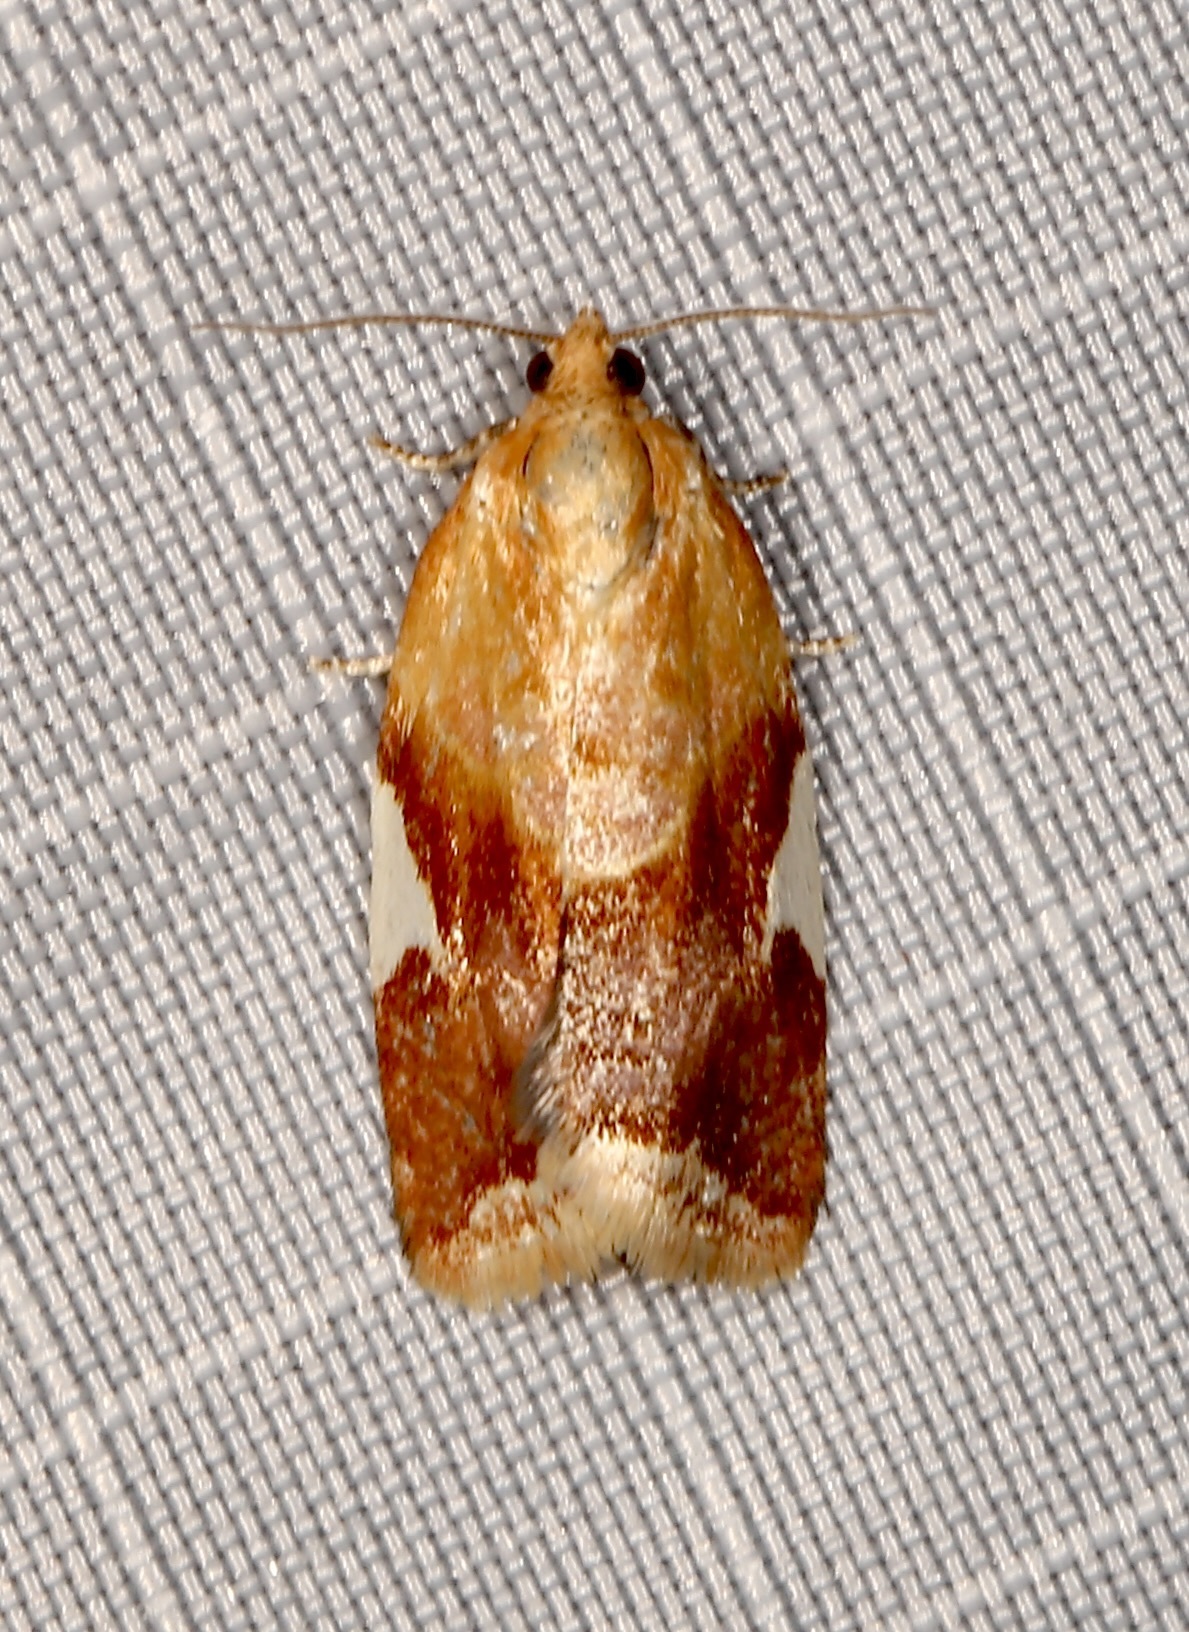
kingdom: Animalia
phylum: Arthropoda
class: Insecta
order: Lepidoptera
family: Tortricidae
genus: Clepsis
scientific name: Clepsis persicana
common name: White triangle tortrix
